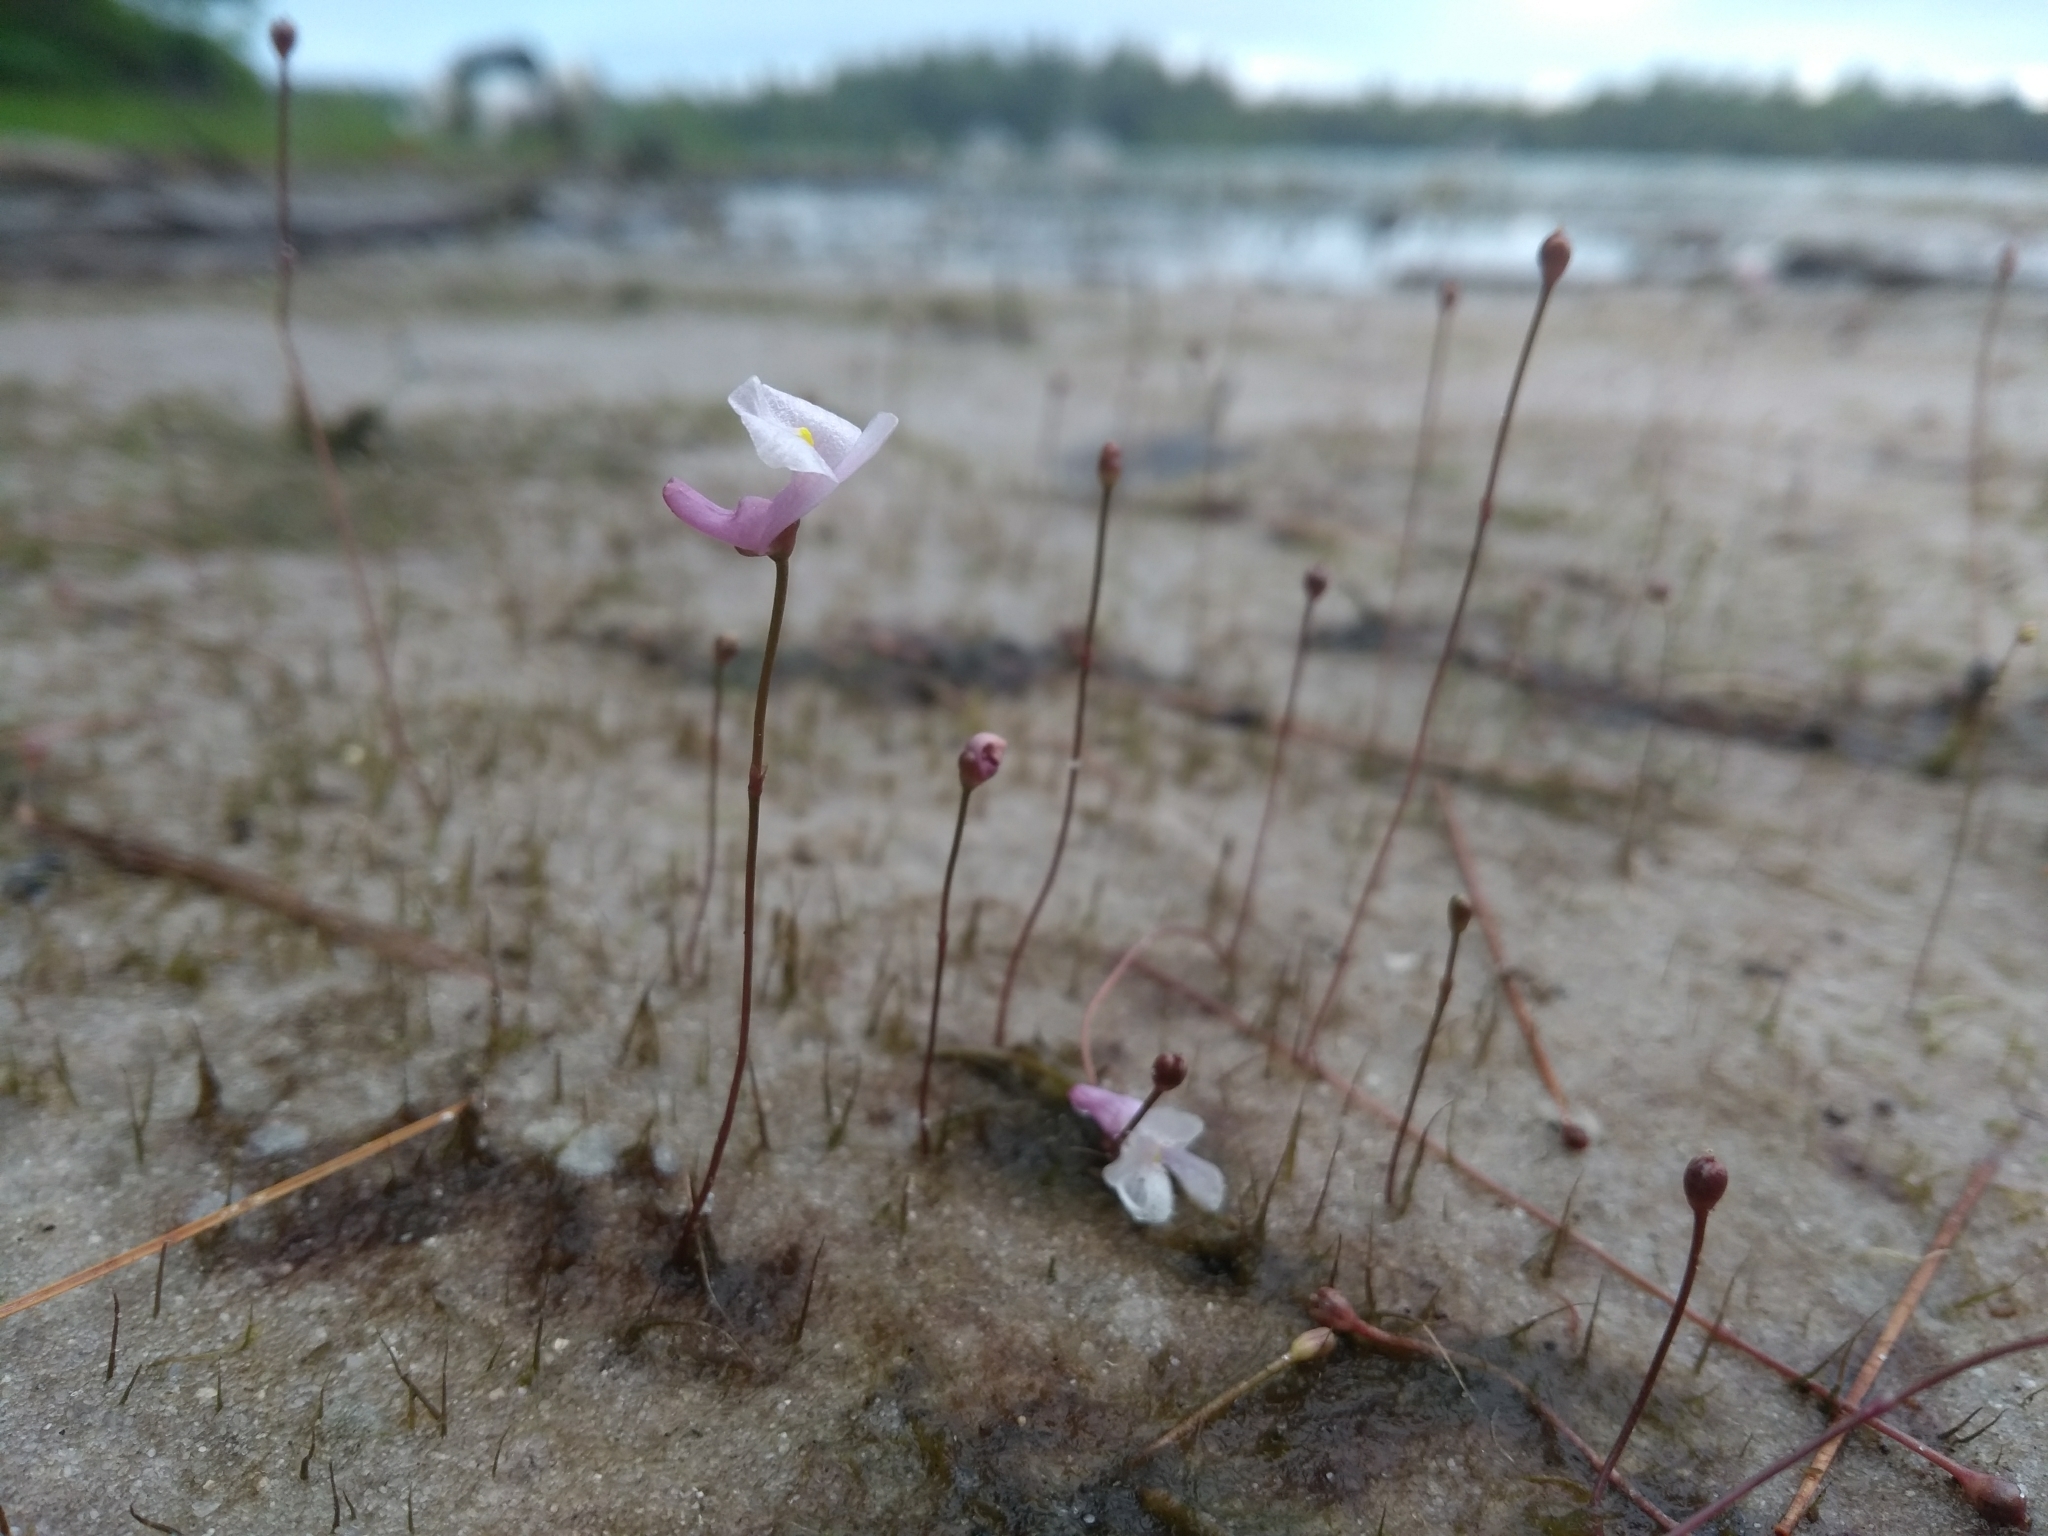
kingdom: Plantae
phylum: Tracheophyta
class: Magnoliopsida
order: Lamiales
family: Lentibulariaceae
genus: Utricularia
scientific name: Utricularia resupinata
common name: Northeastern bladderwort
